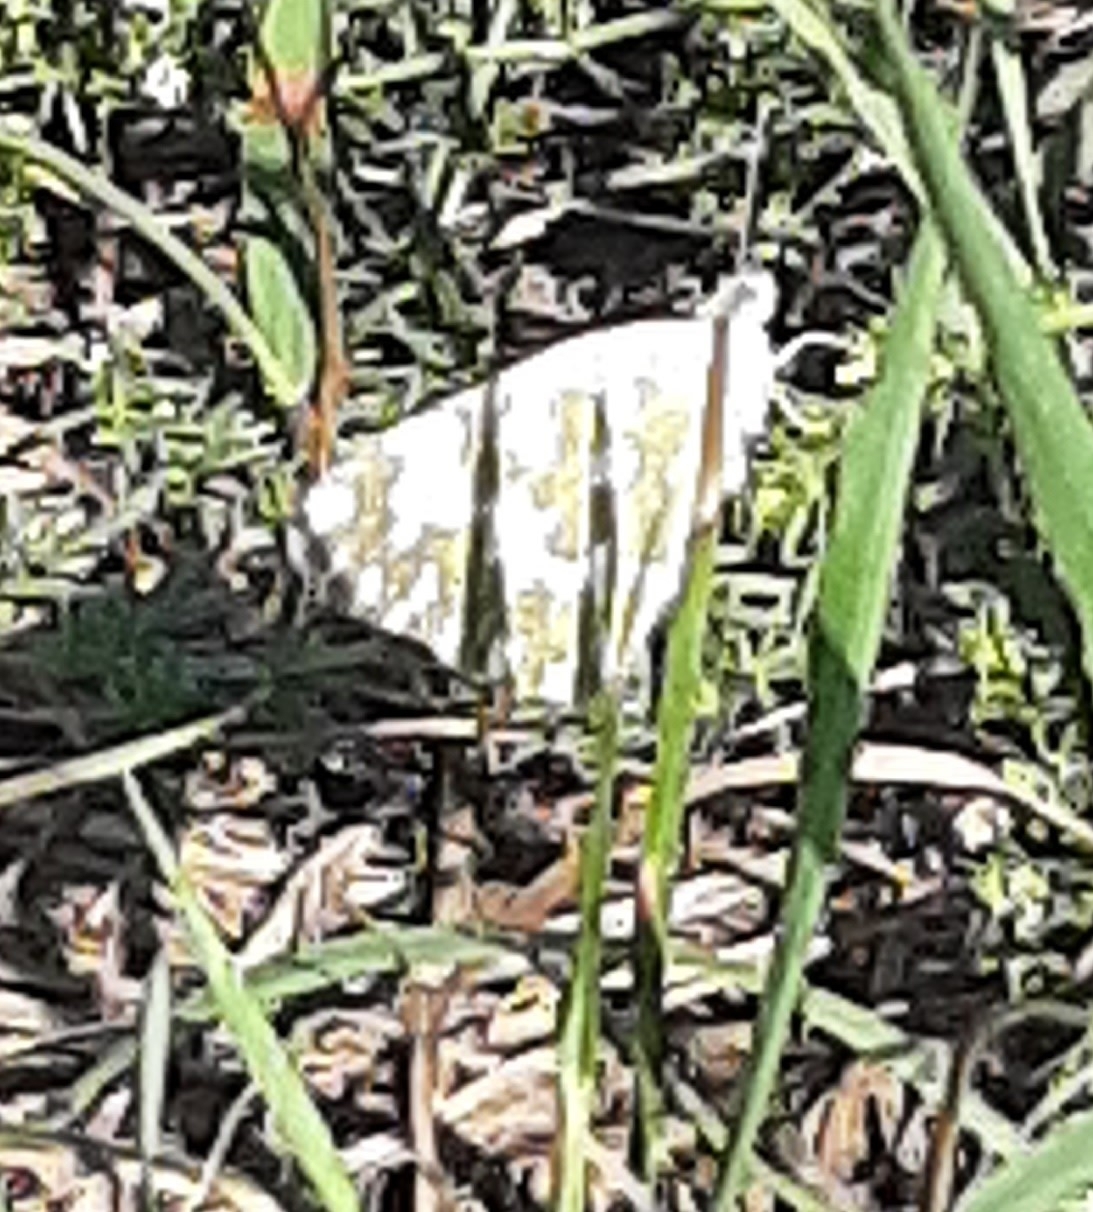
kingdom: Animalia
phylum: Arthropoda
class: Insecta
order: Lepidoptera
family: Pieridae
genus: Pontia
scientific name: Pontia edusa
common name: Eastern bath white
